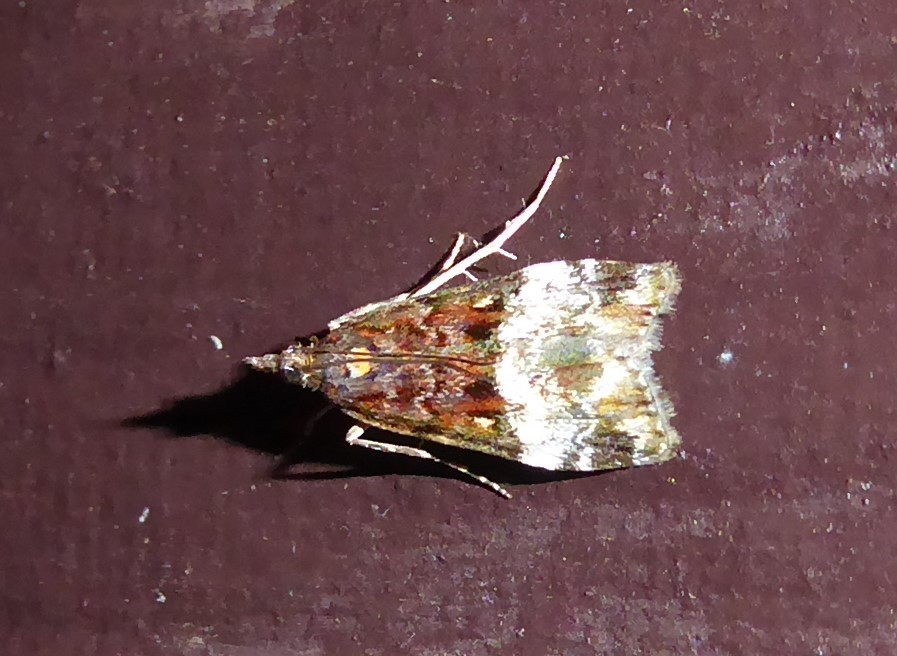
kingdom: Animalia
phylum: Arthropoda
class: Insecta
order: Lepidoptera
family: Crambidae
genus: Scoparia
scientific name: Scoparia minusculalis
